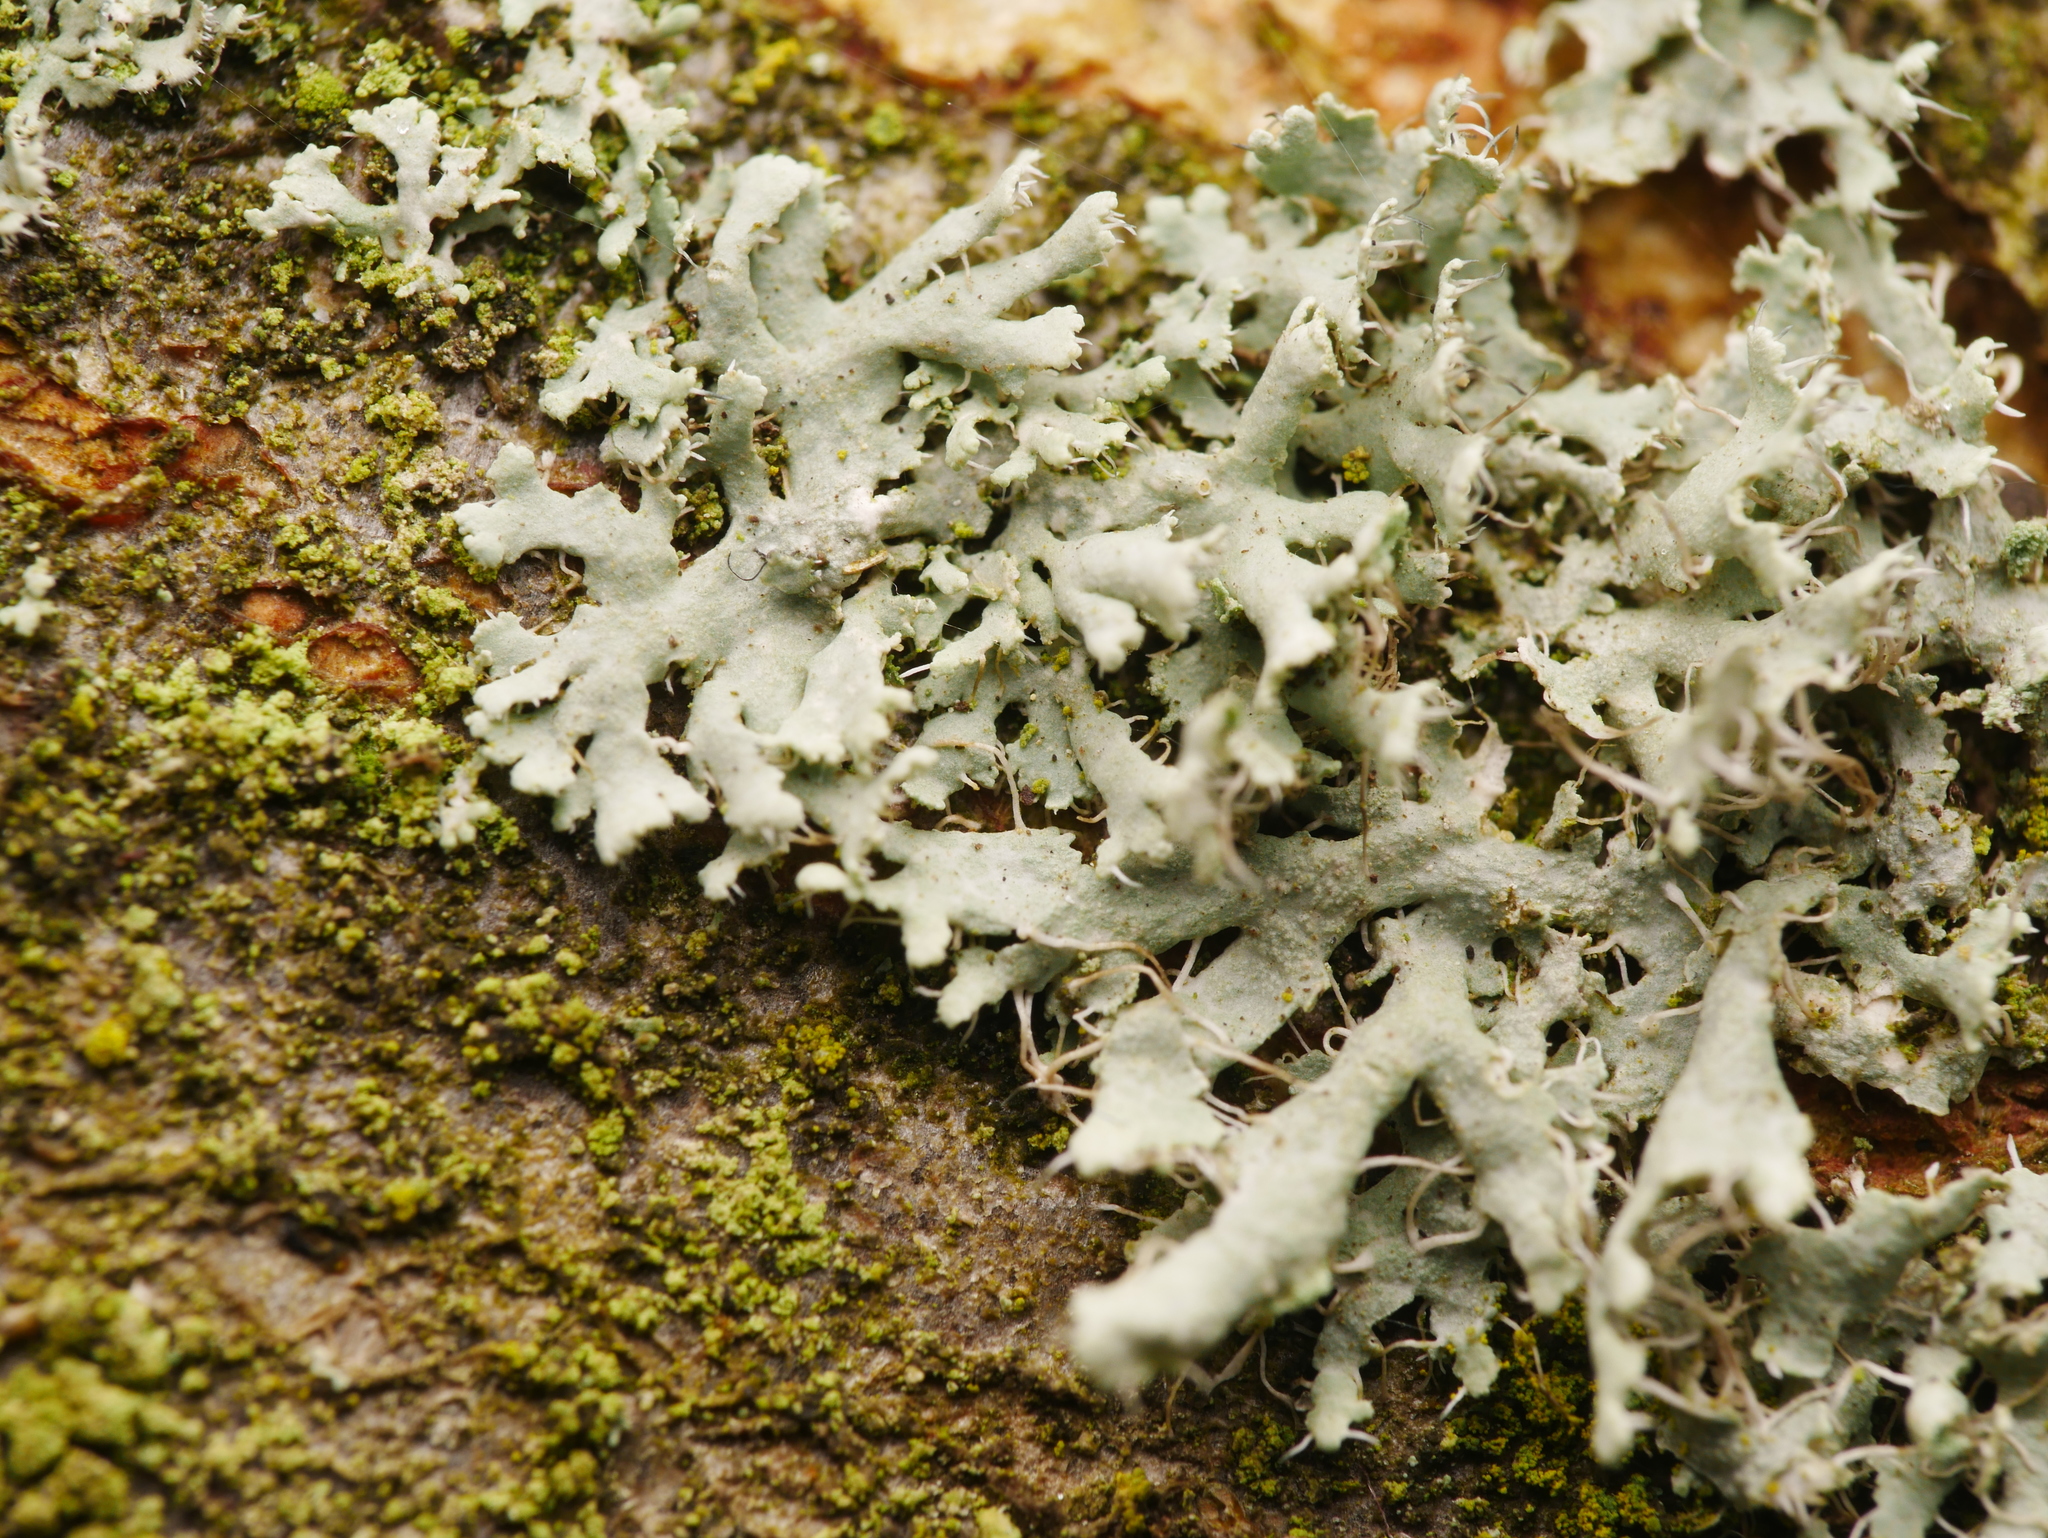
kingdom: Fungi
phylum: Ascomycota
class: Lecanoromycetes
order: Caliciales
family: Physciaceae
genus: Physcia
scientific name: Physcia adscendens
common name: Hooded rosette lichen
